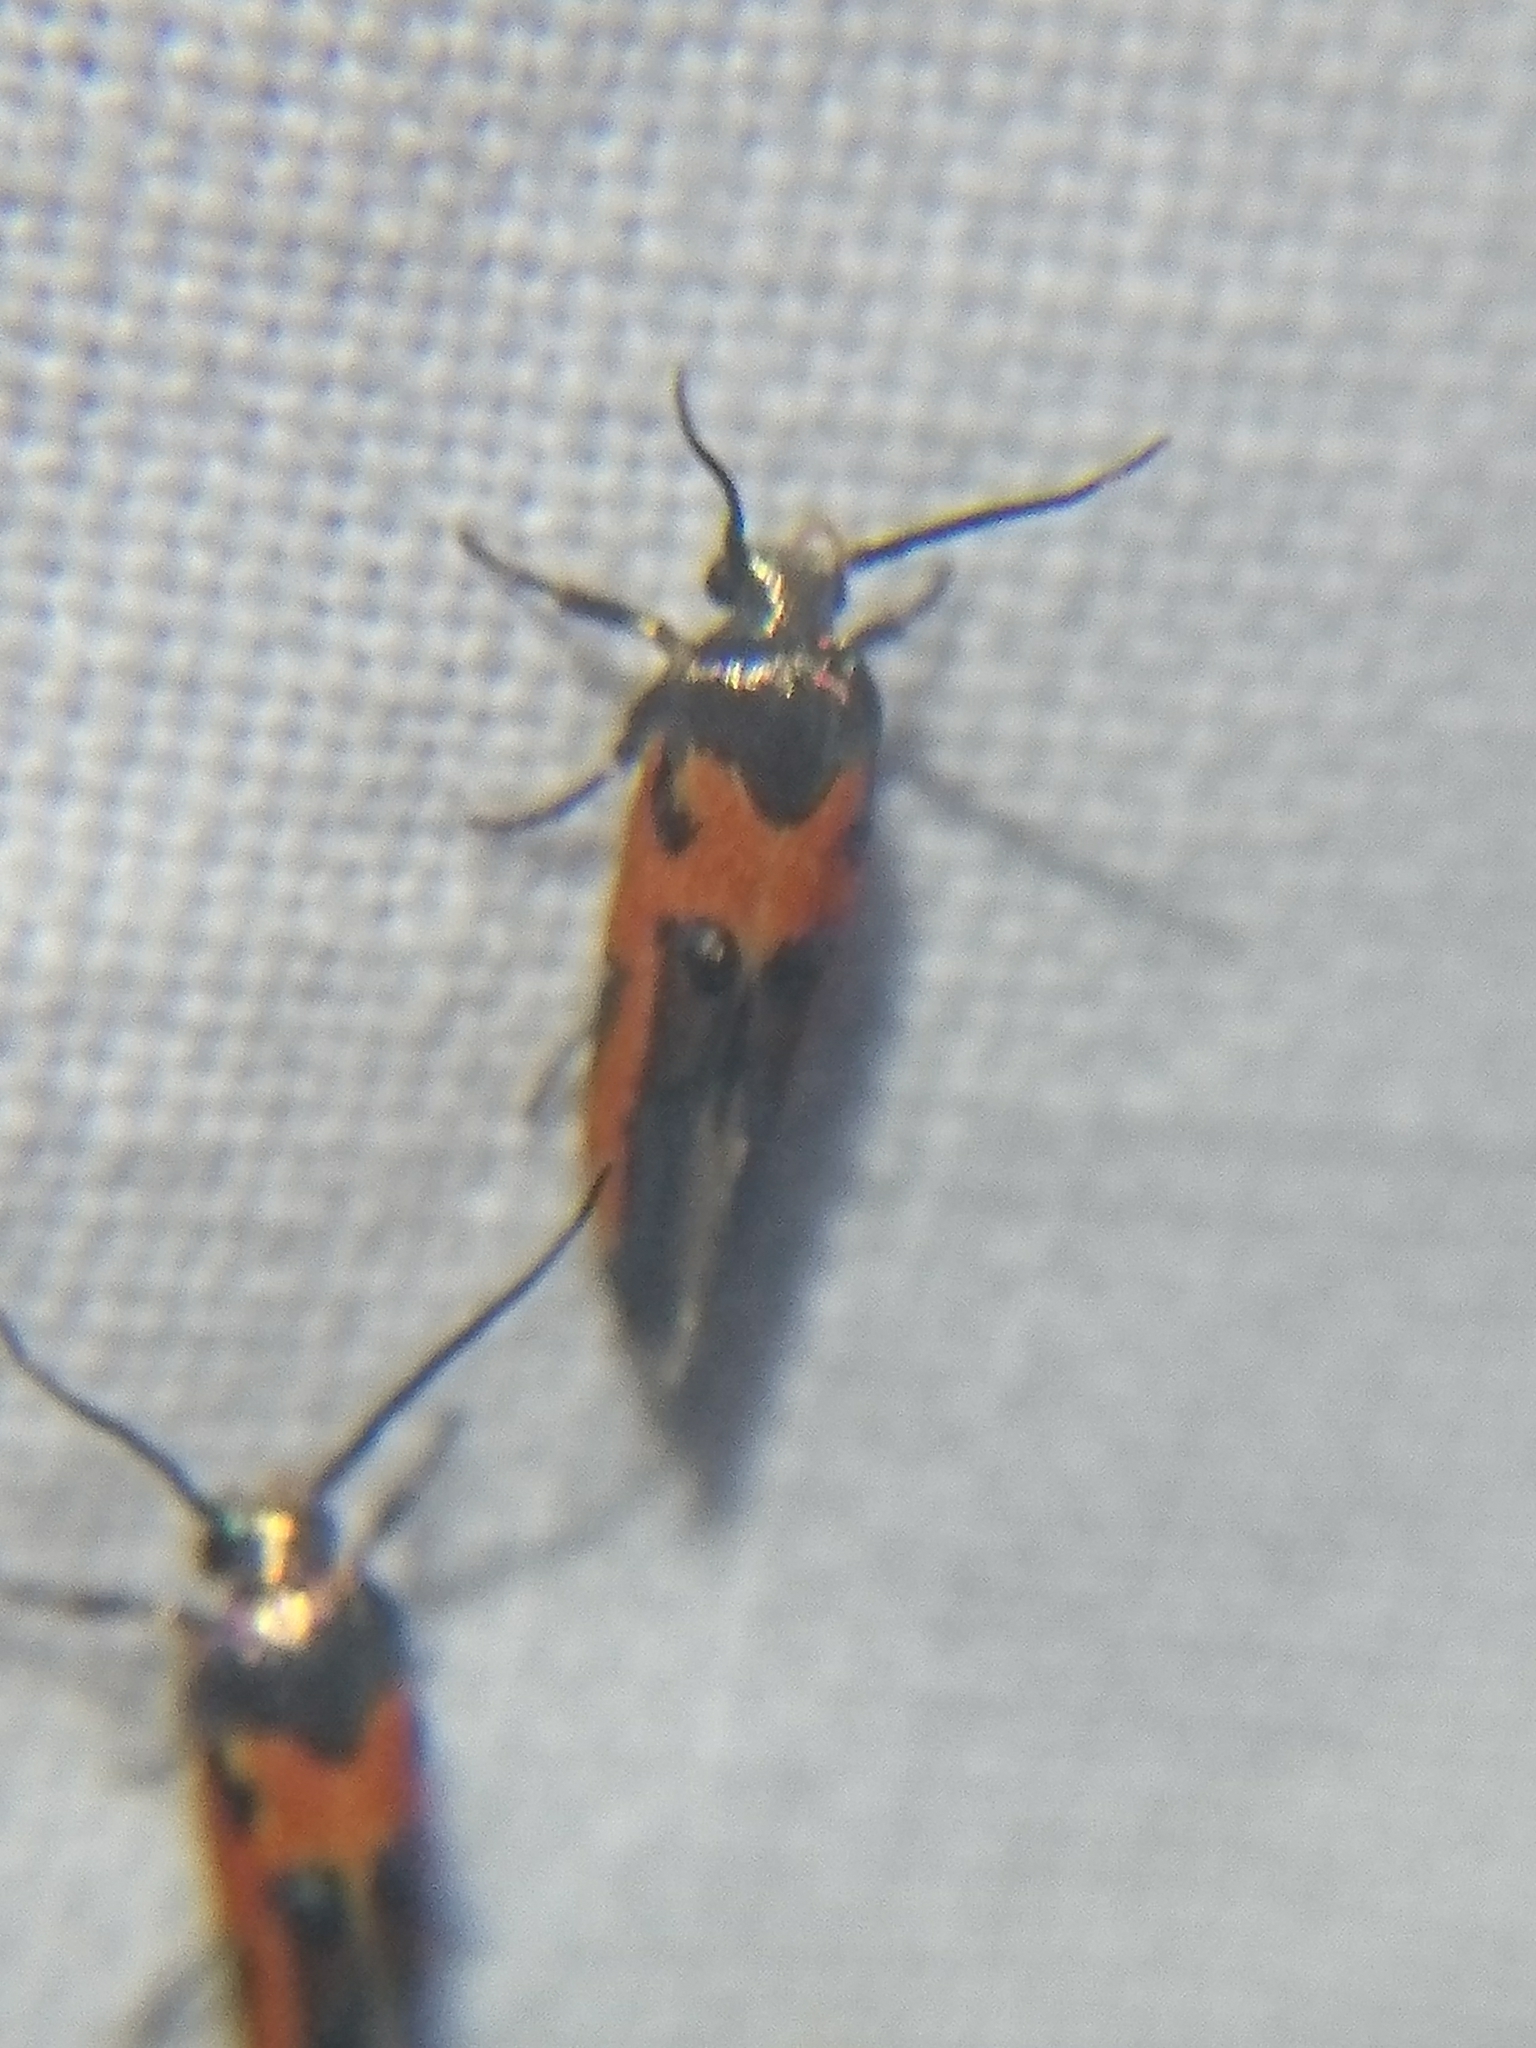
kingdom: Animalia
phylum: Arthropoda
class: Insecta
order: Lepidoptera
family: Cosmopterigidae
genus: Euclemensia
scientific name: Euclemensia bassettella
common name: Kermes scale moth
